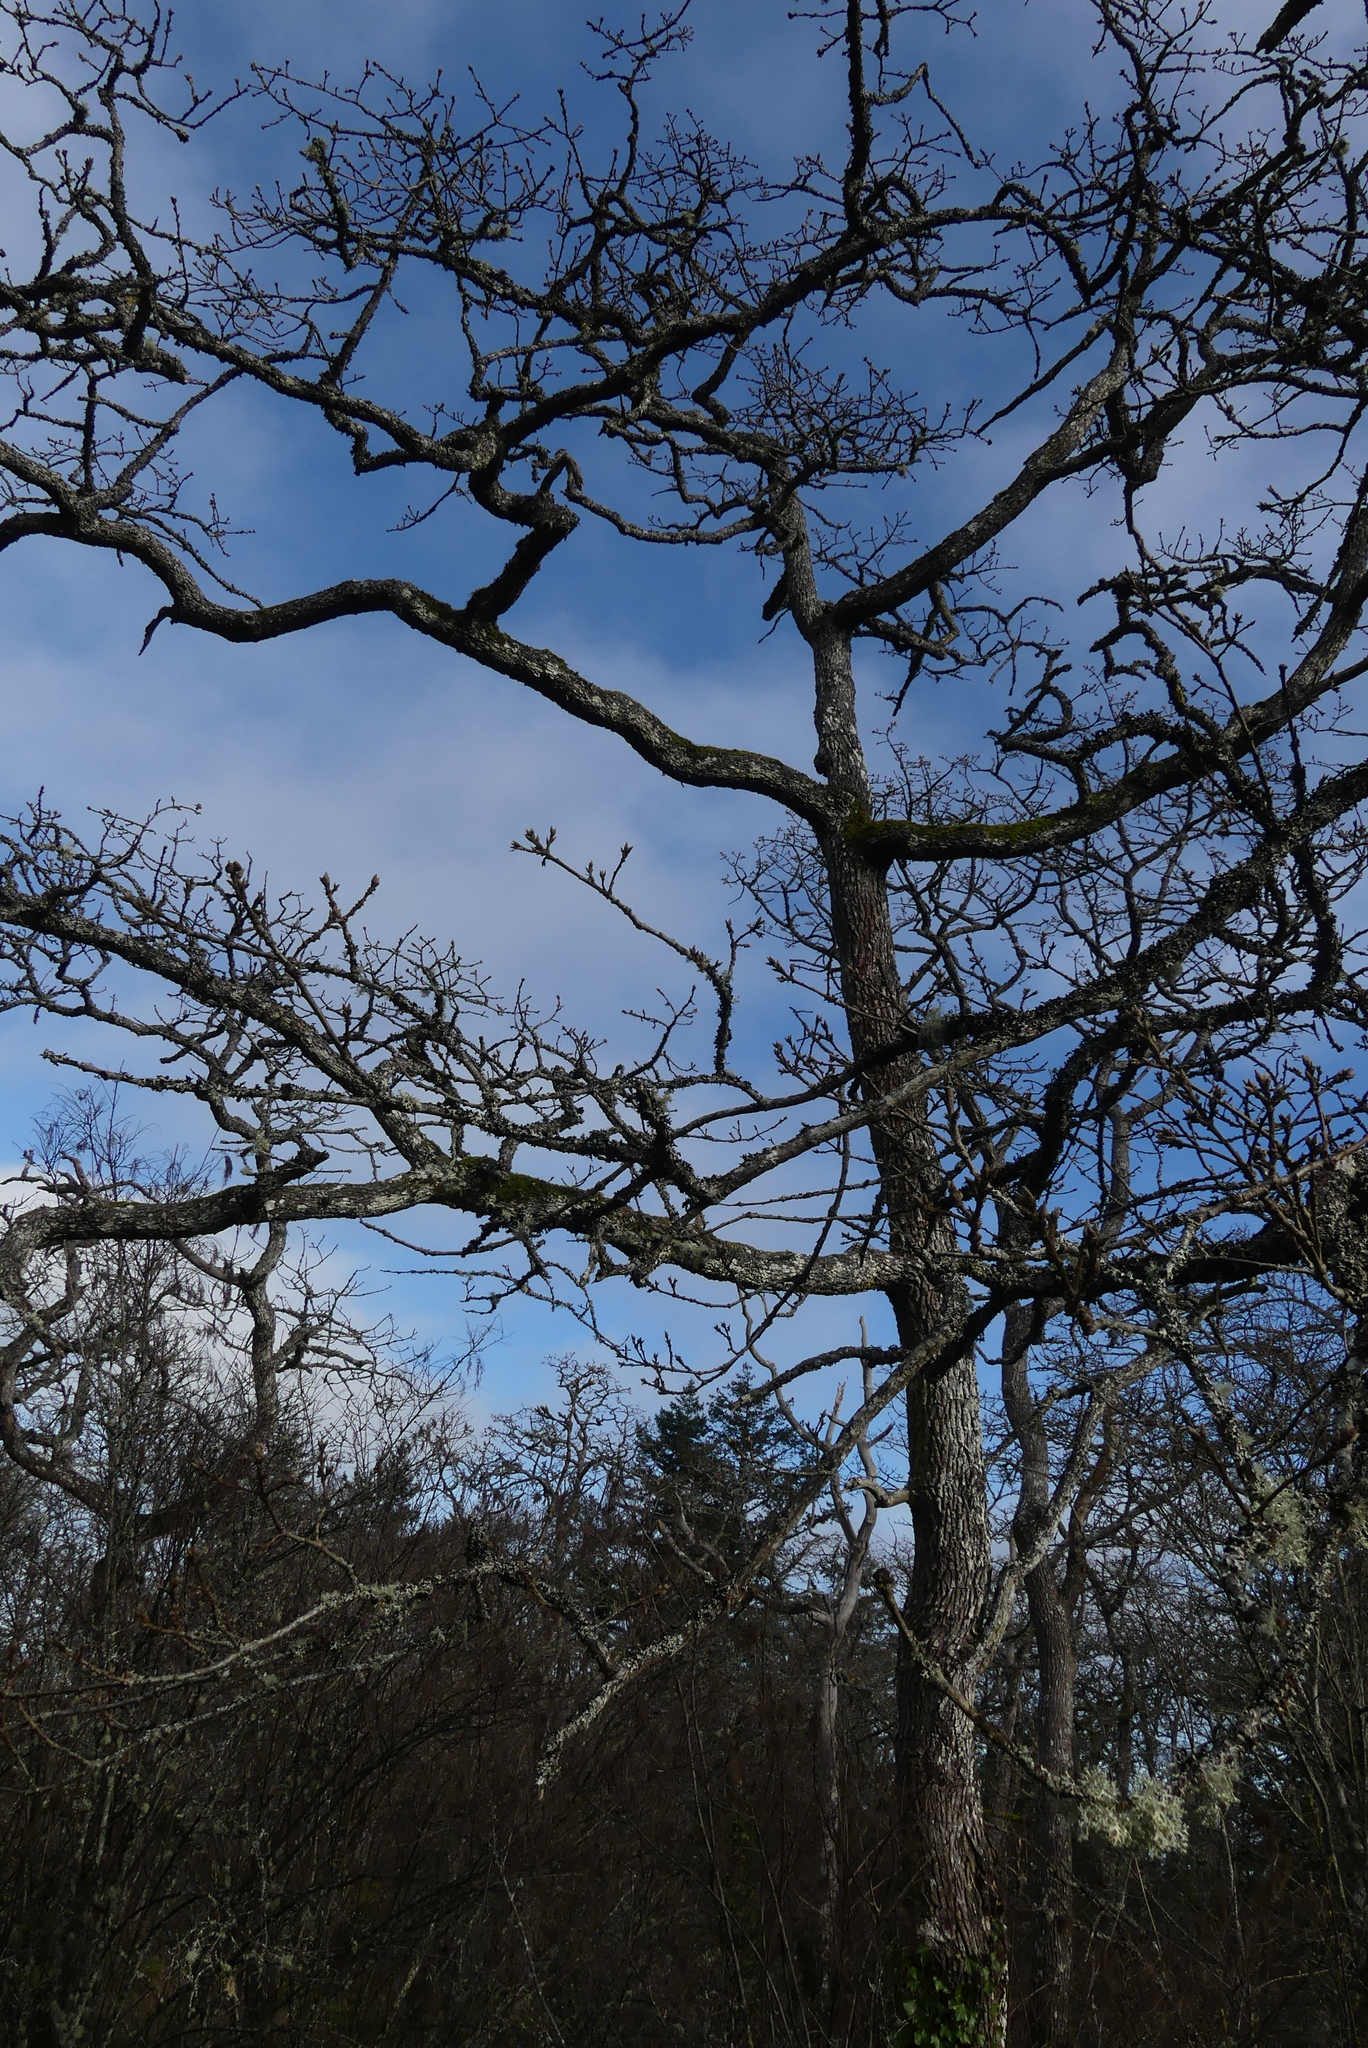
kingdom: Plantae
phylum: Tracheophyta
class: Magnoliopsida
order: Fagales
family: Fagaceae
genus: Quercus
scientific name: Quercus garryana
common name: Garry oak
